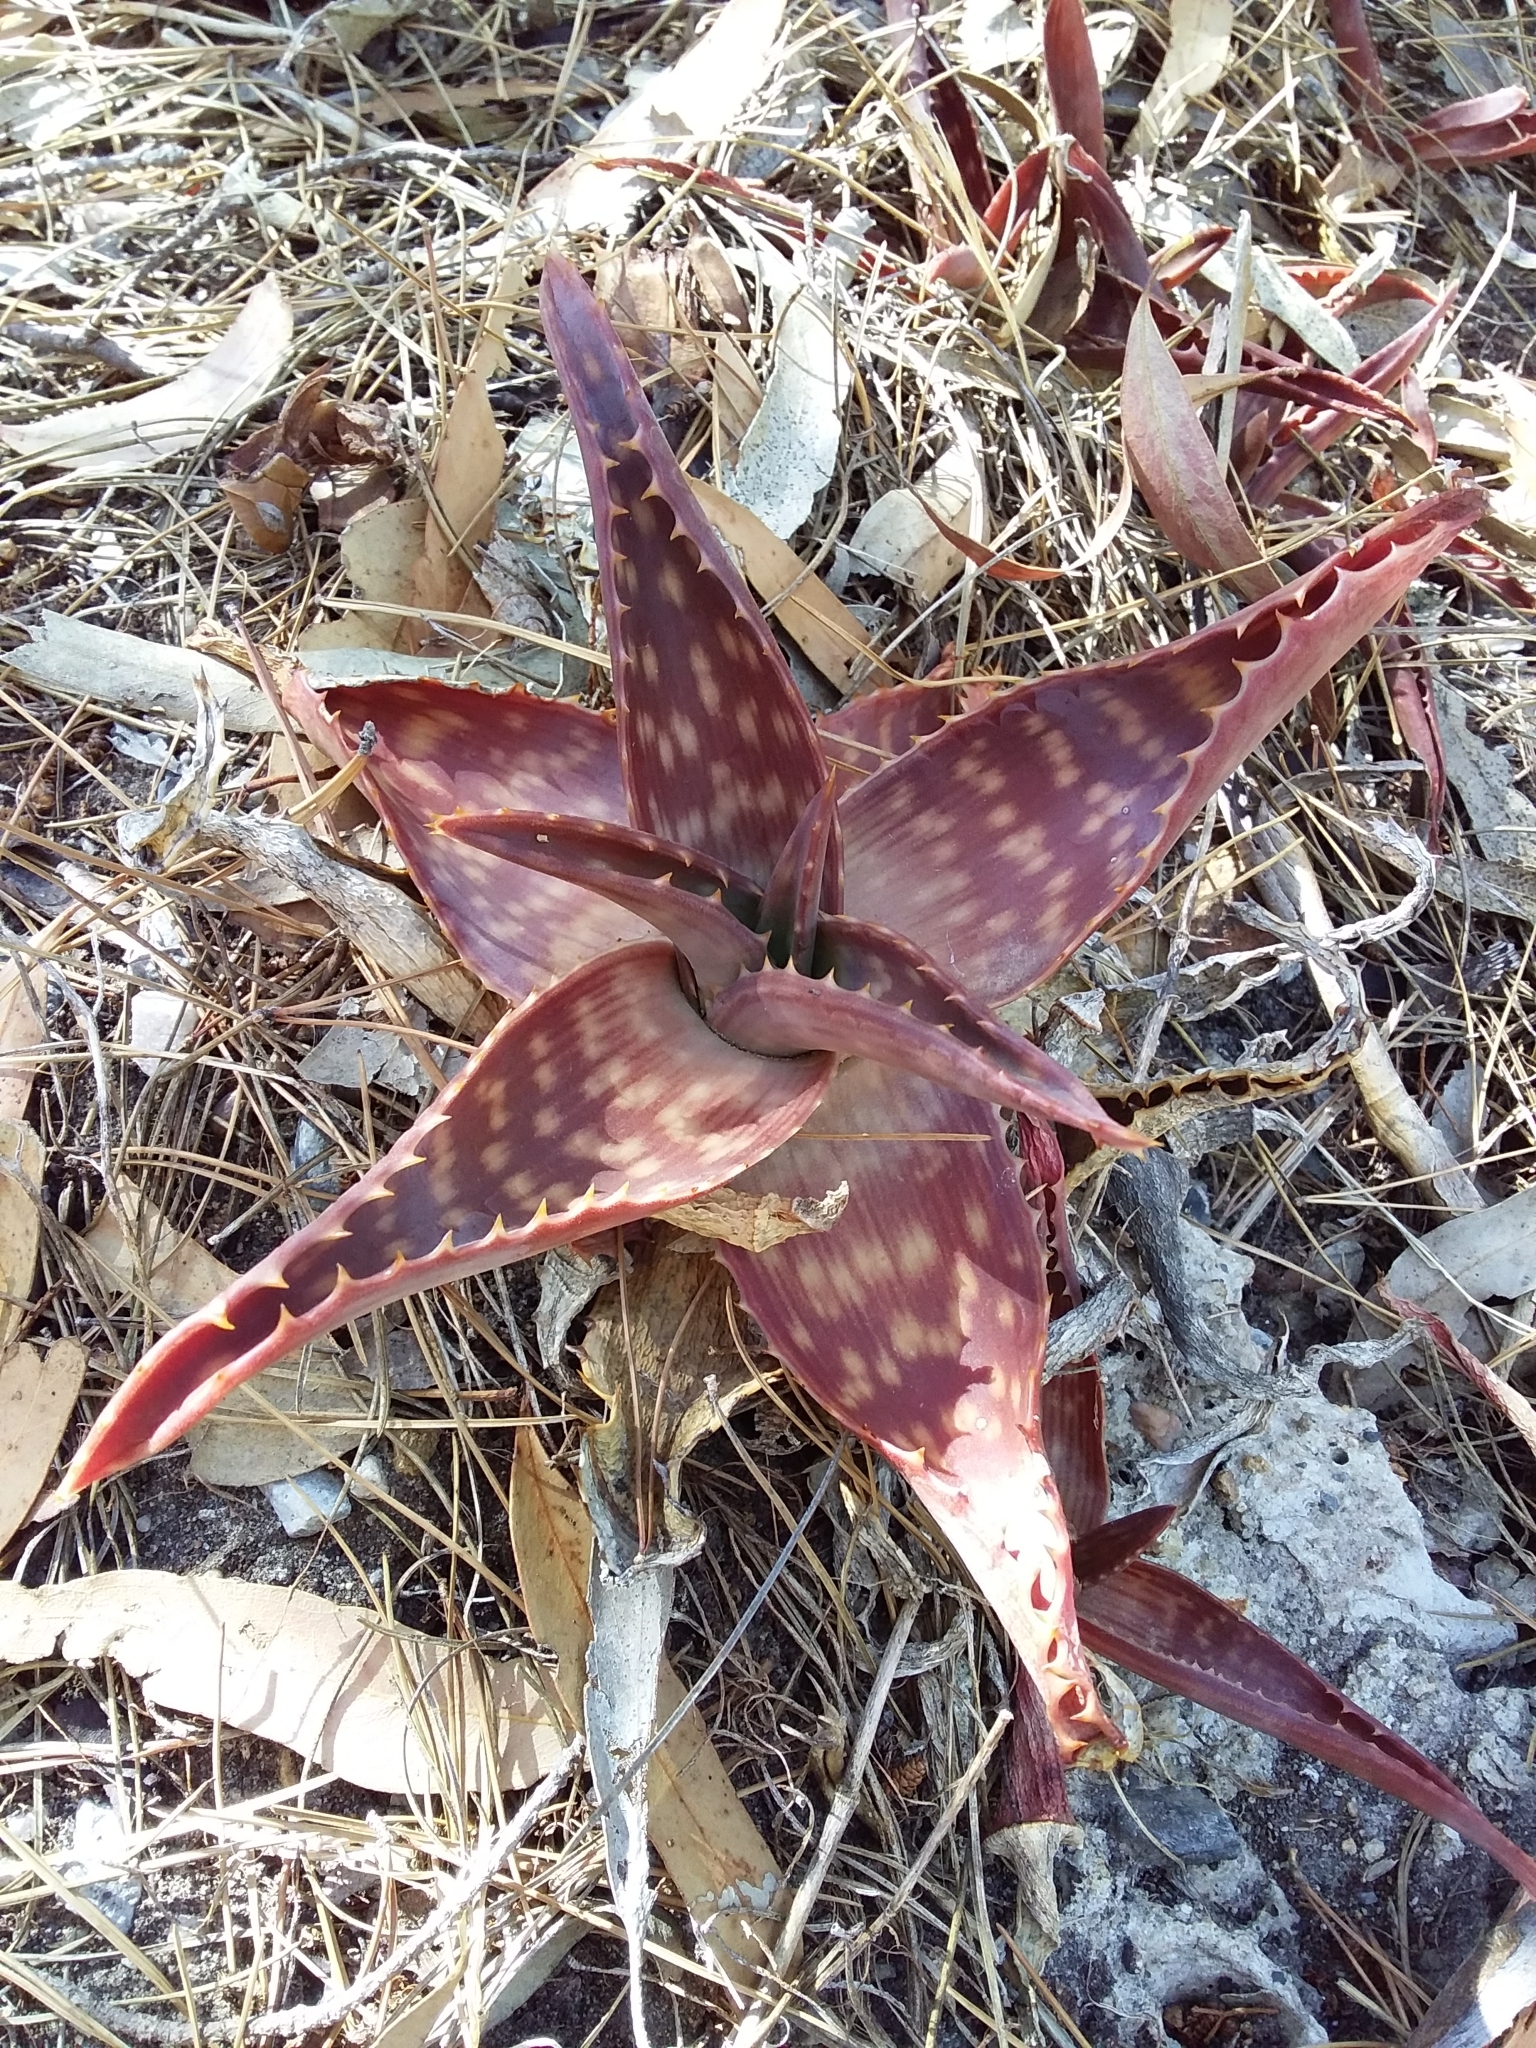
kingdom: Plantae
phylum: Tracheophyta
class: Liliopsida
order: Asparagales
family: Asphodelaceae
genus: Aloe
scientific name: Aloe maculata
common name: Broadleaf aloe
